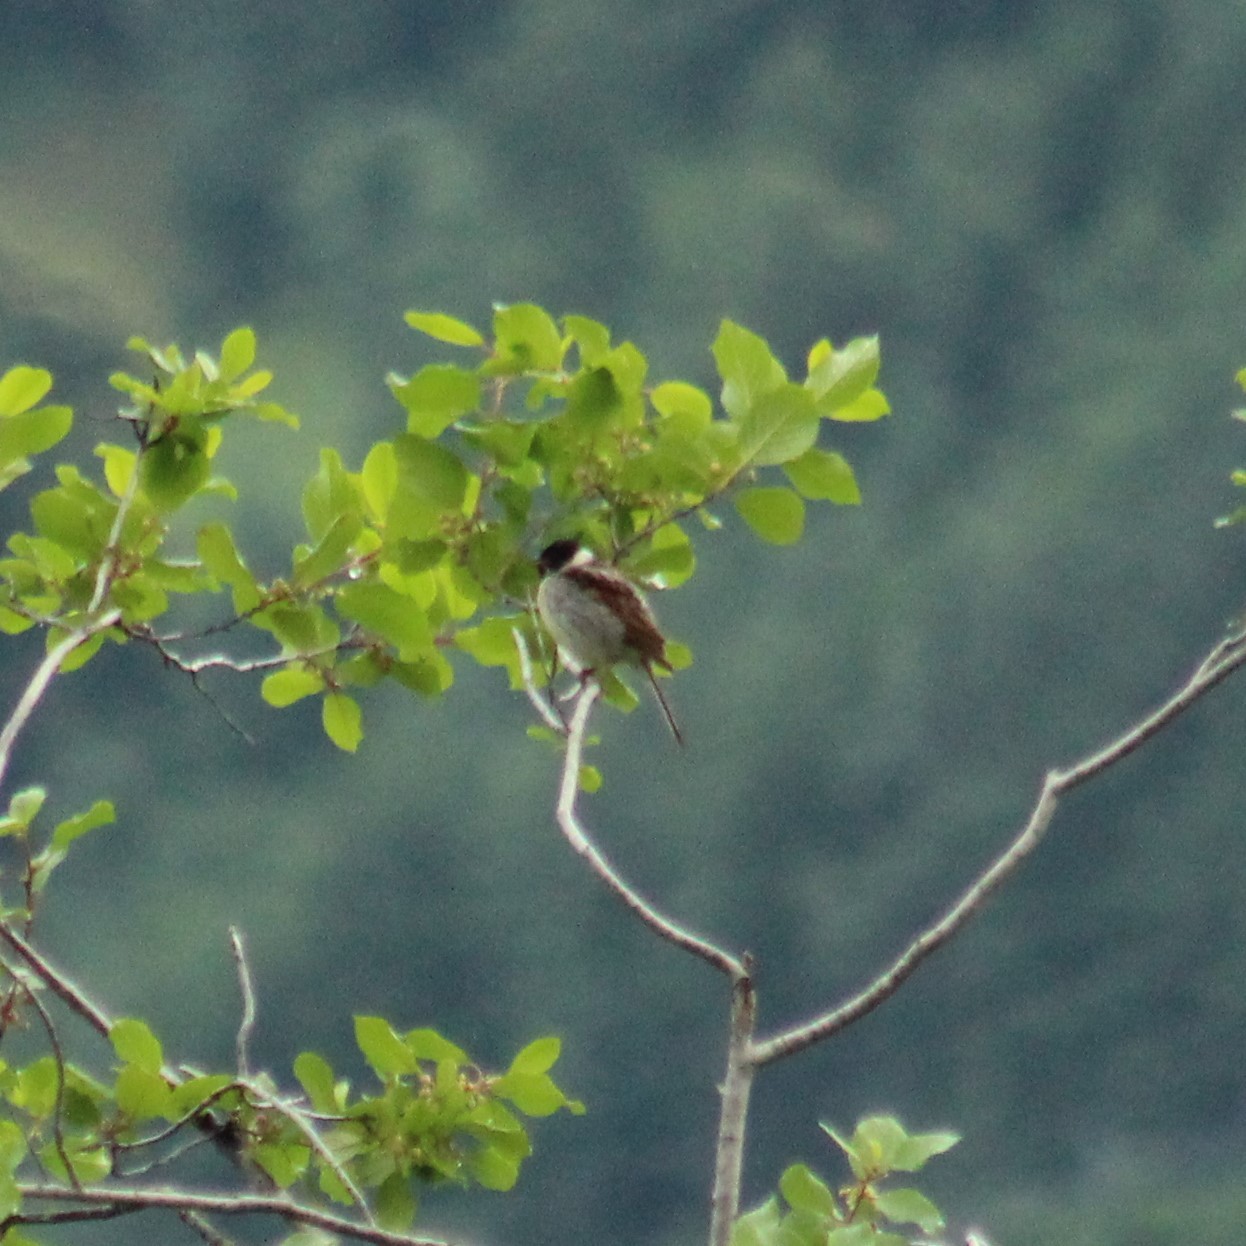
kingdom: Animalia
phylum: Chordata
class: Aves
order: Passeriformes
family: Emberizidae
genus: Emberiza
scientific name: Emberiza schoeniclus
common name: Reed bunting
